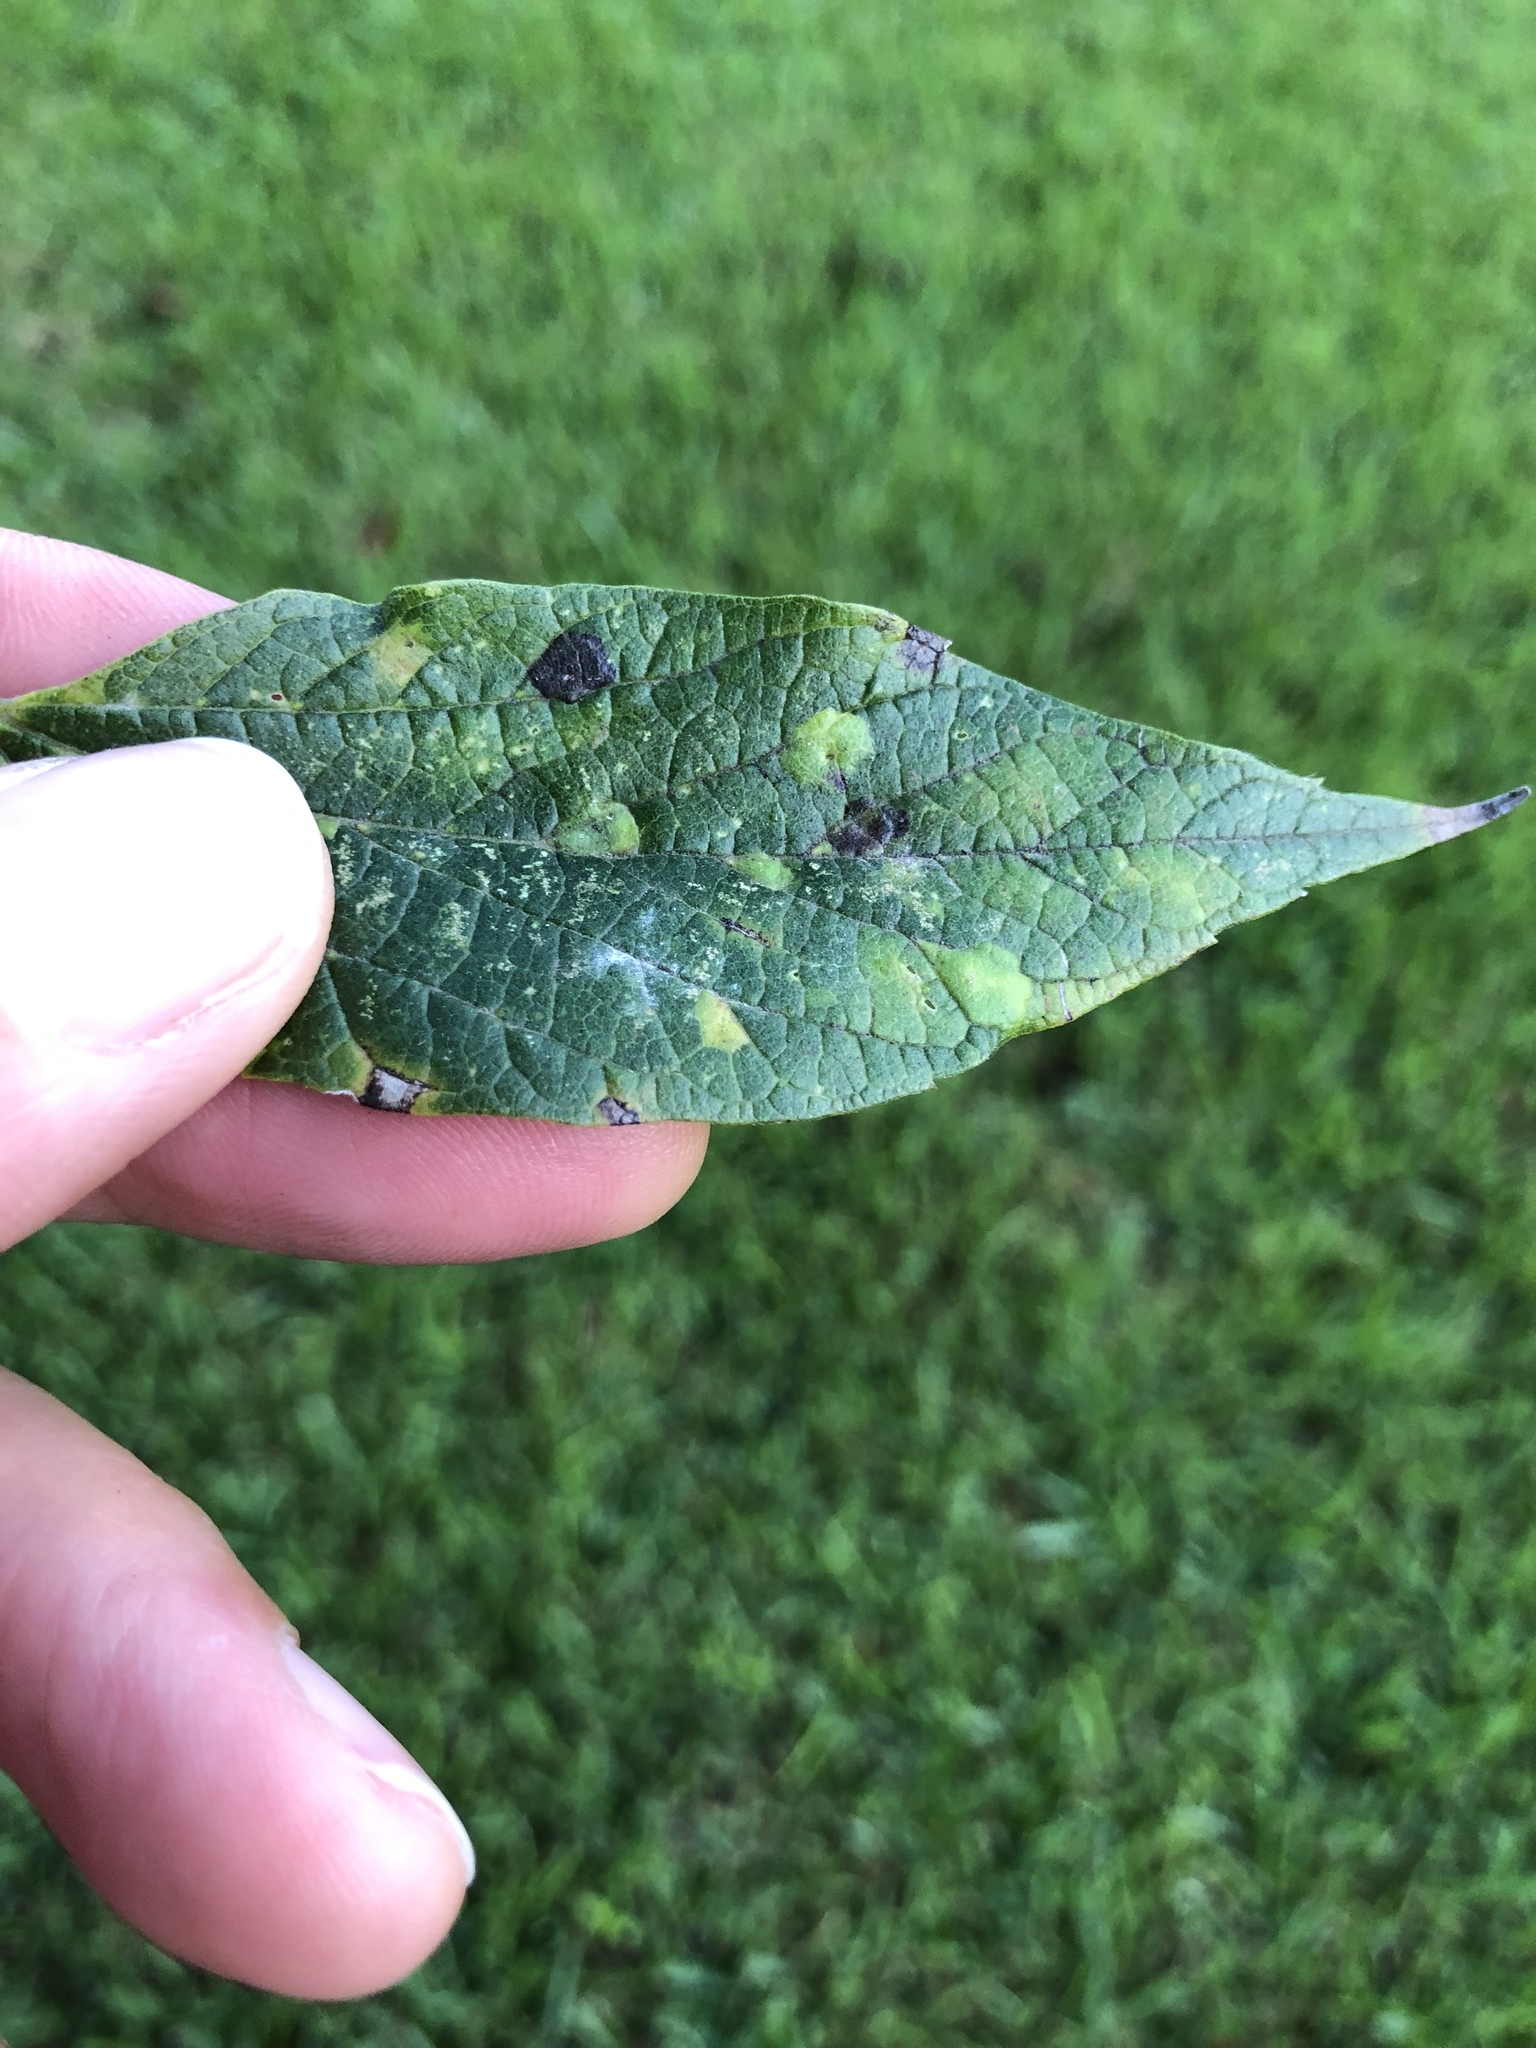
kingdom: Animalia
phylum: Arthropoda
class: Insecta
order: Hemiptera
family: Aphalaridae
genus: Pachypsylla
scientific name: Pachypsylla celtidisvesicula
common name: Hackberry blister gall psyllid
